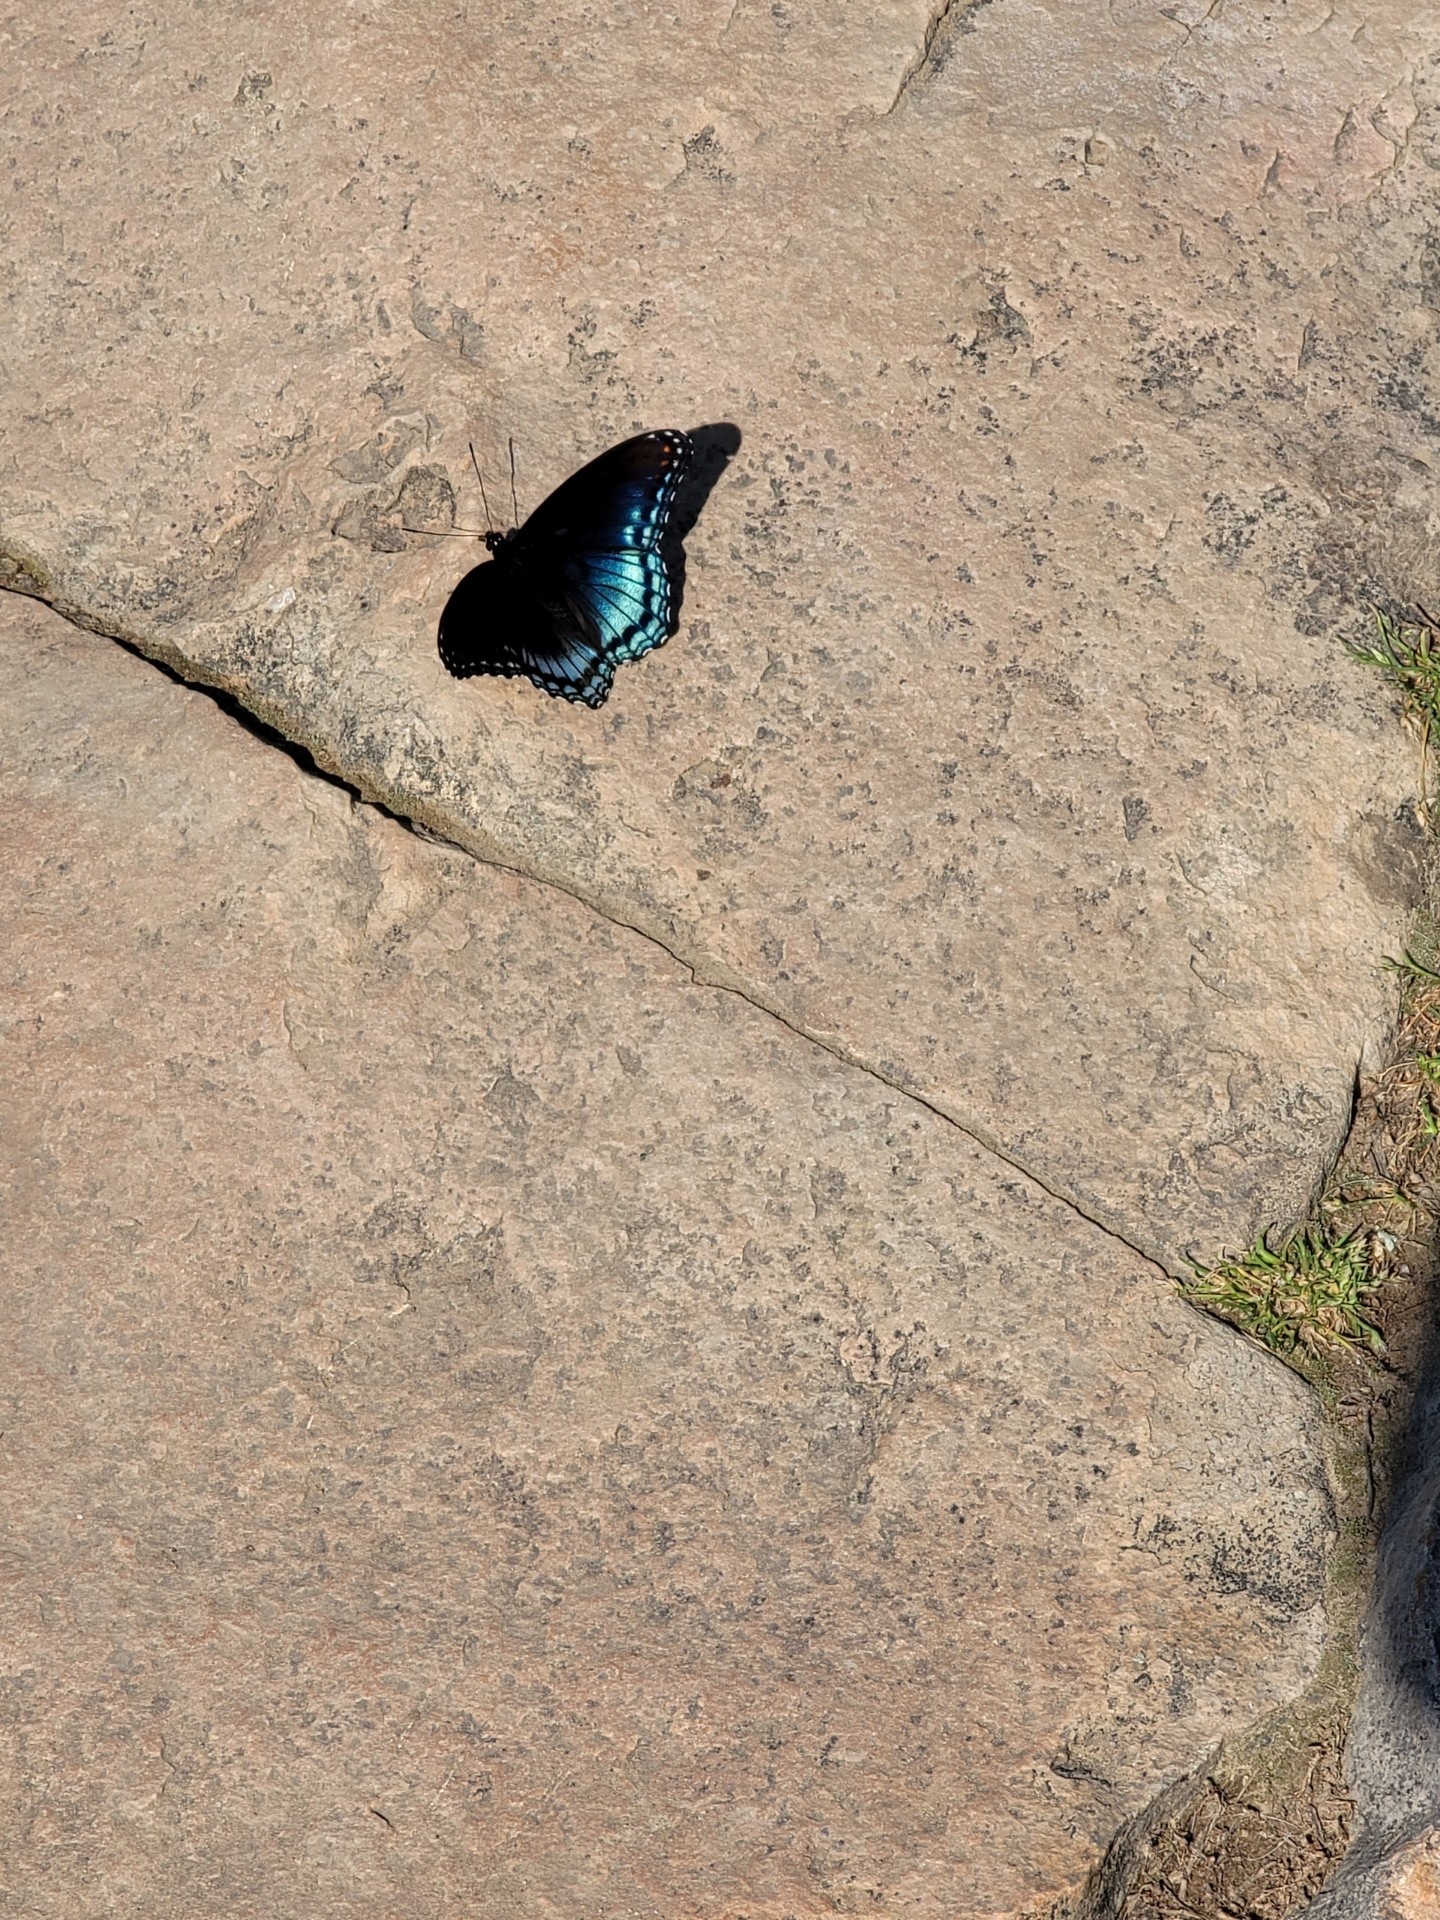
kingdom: Animalia
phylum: Arthropoda
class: Insecta
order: Lepidoptera
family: Nymphalidae
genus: Limenitis
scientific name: Limenitis astyanax
